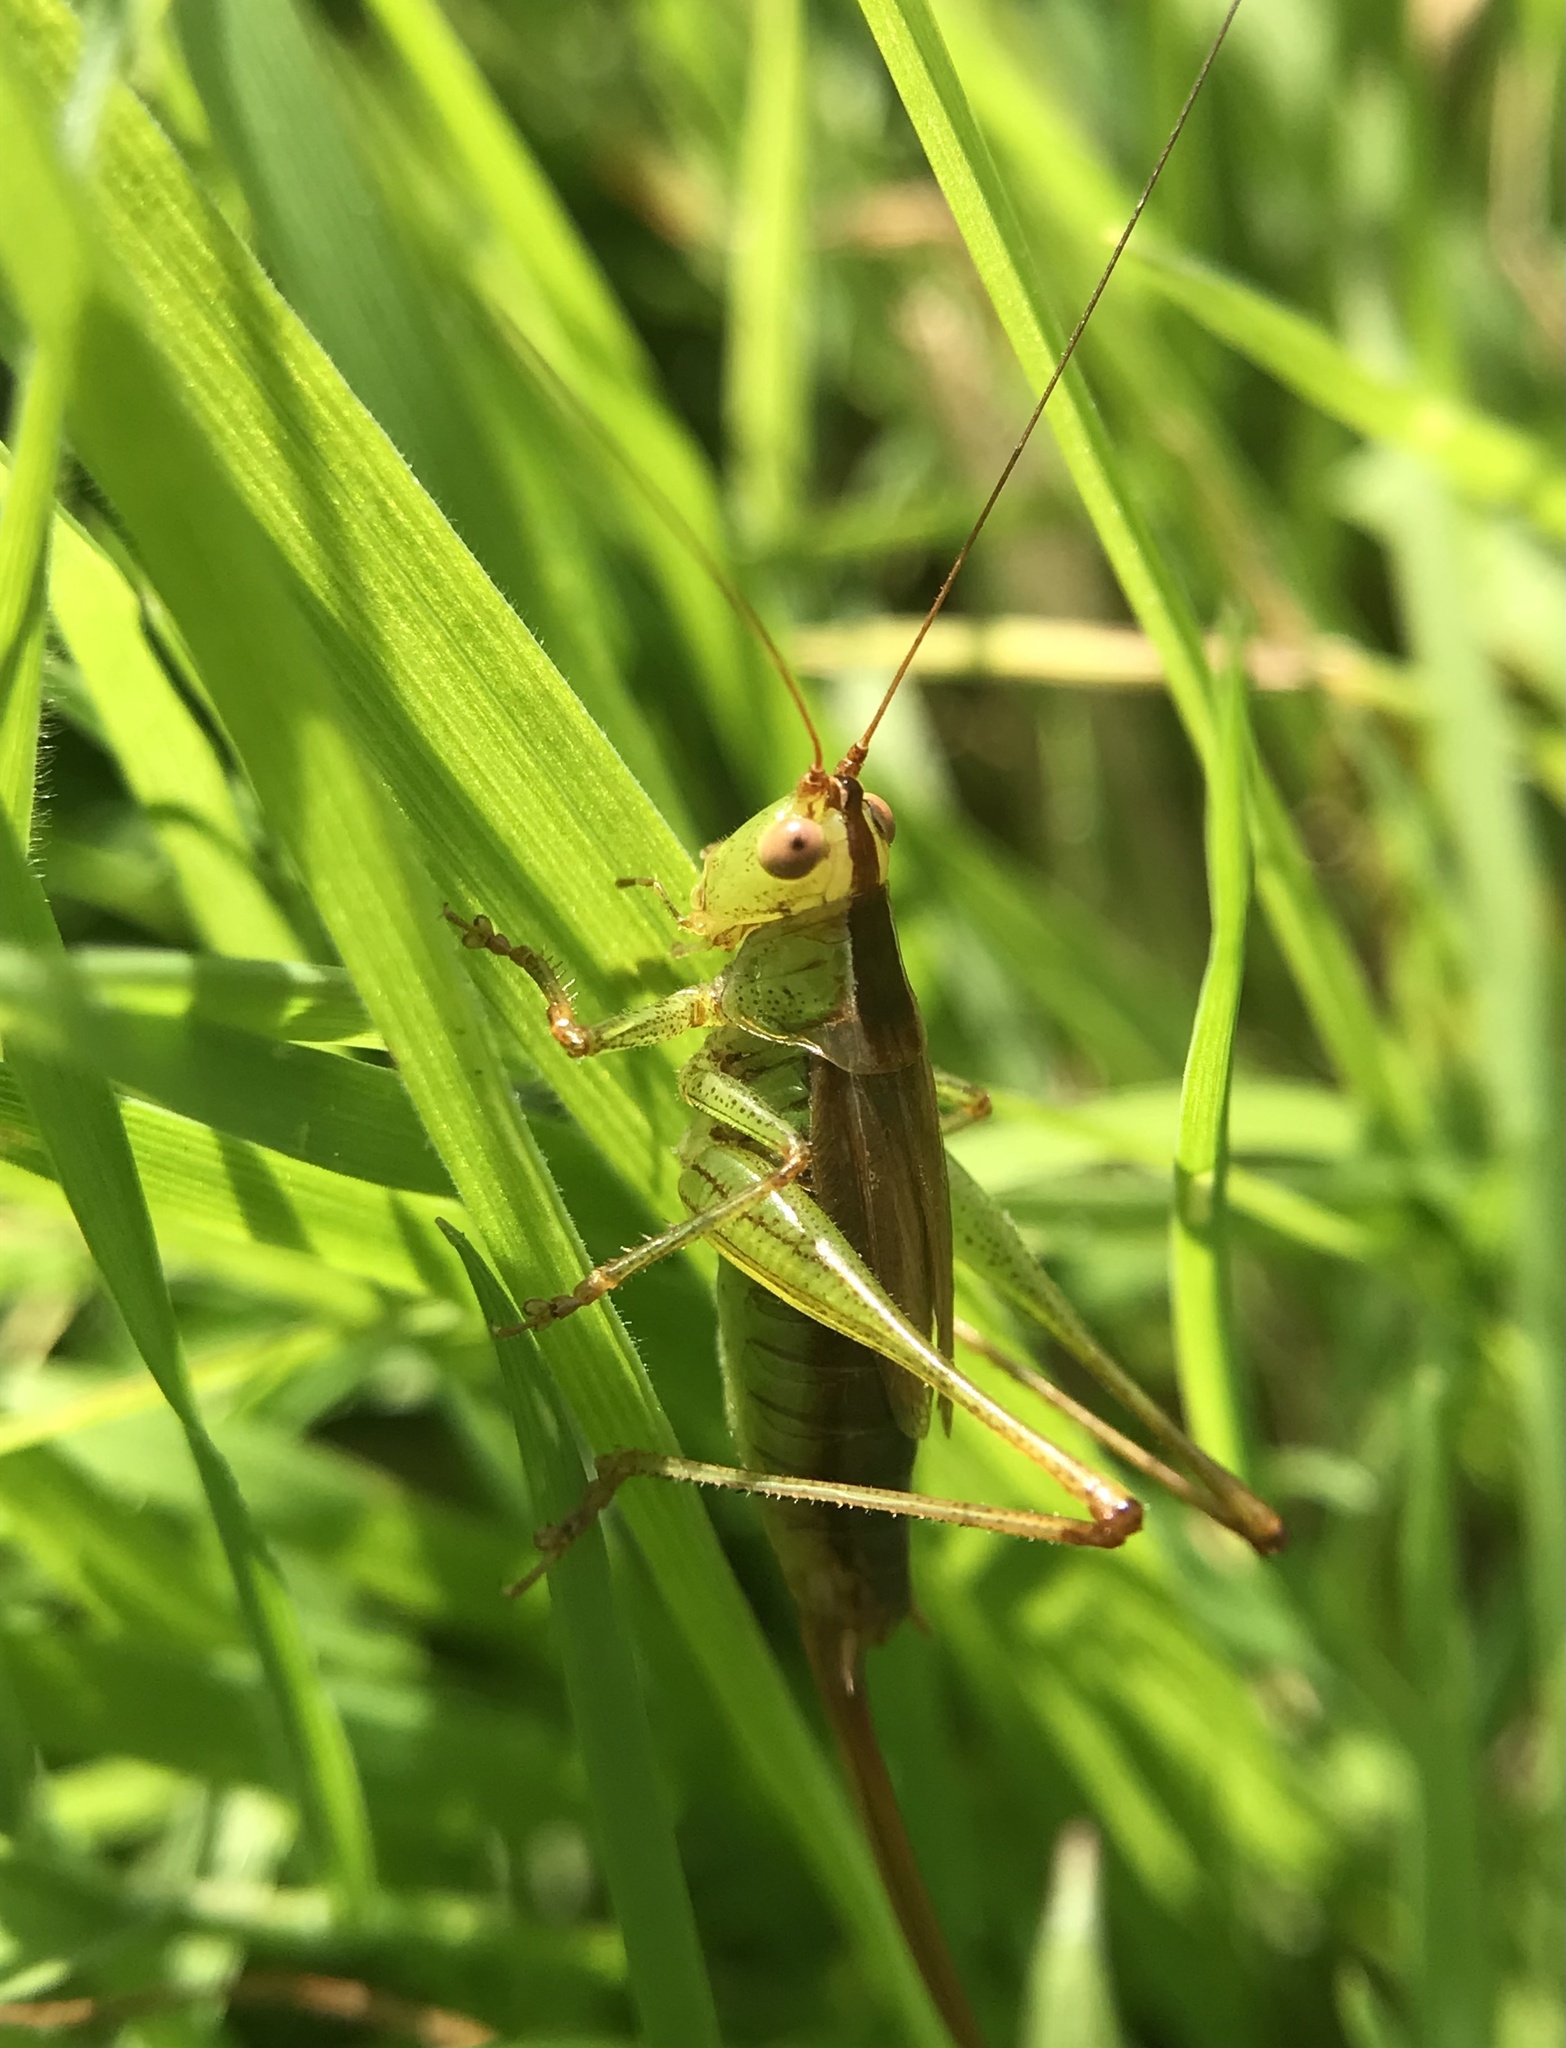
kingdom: Animalia
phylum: Arthropoda
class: Insecta
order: Orthoptera
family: Tettigoniidae
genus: Conocephalus
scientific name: Conocephalus brevipennis
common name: Short-winged meadow katydid
